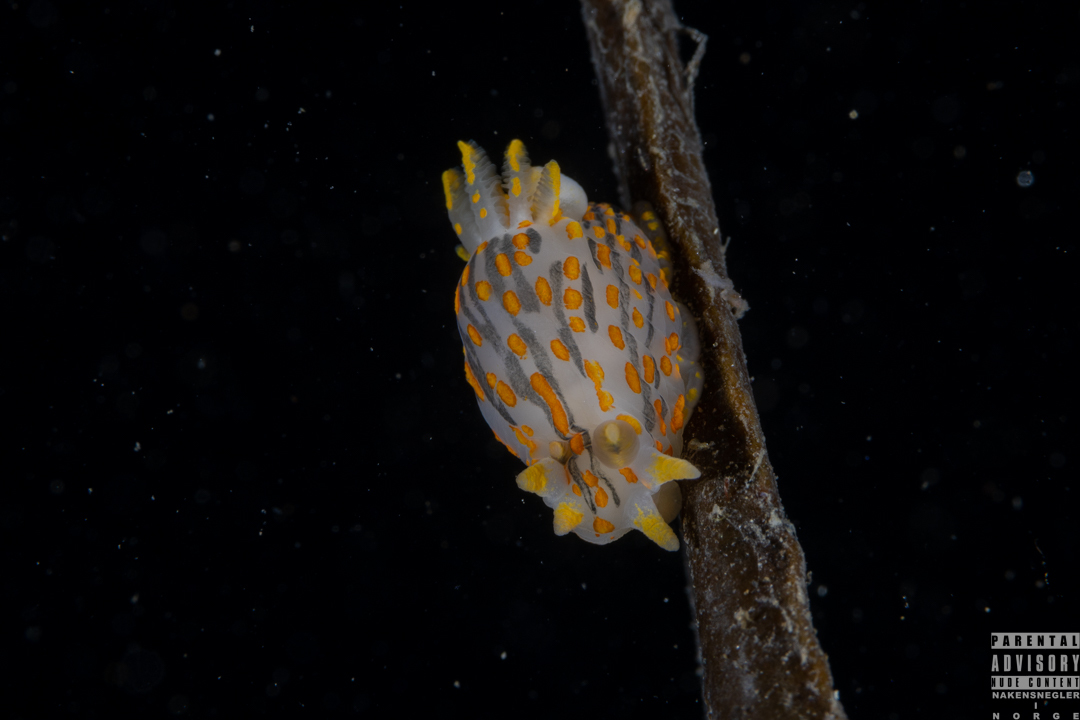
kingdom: Animalia
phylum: Mollusca
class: Gastropoda
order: Nudibranchia
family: Polyceridae
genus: Polycera
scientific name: Polycera quadrilineata
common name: Four-striped polycera
